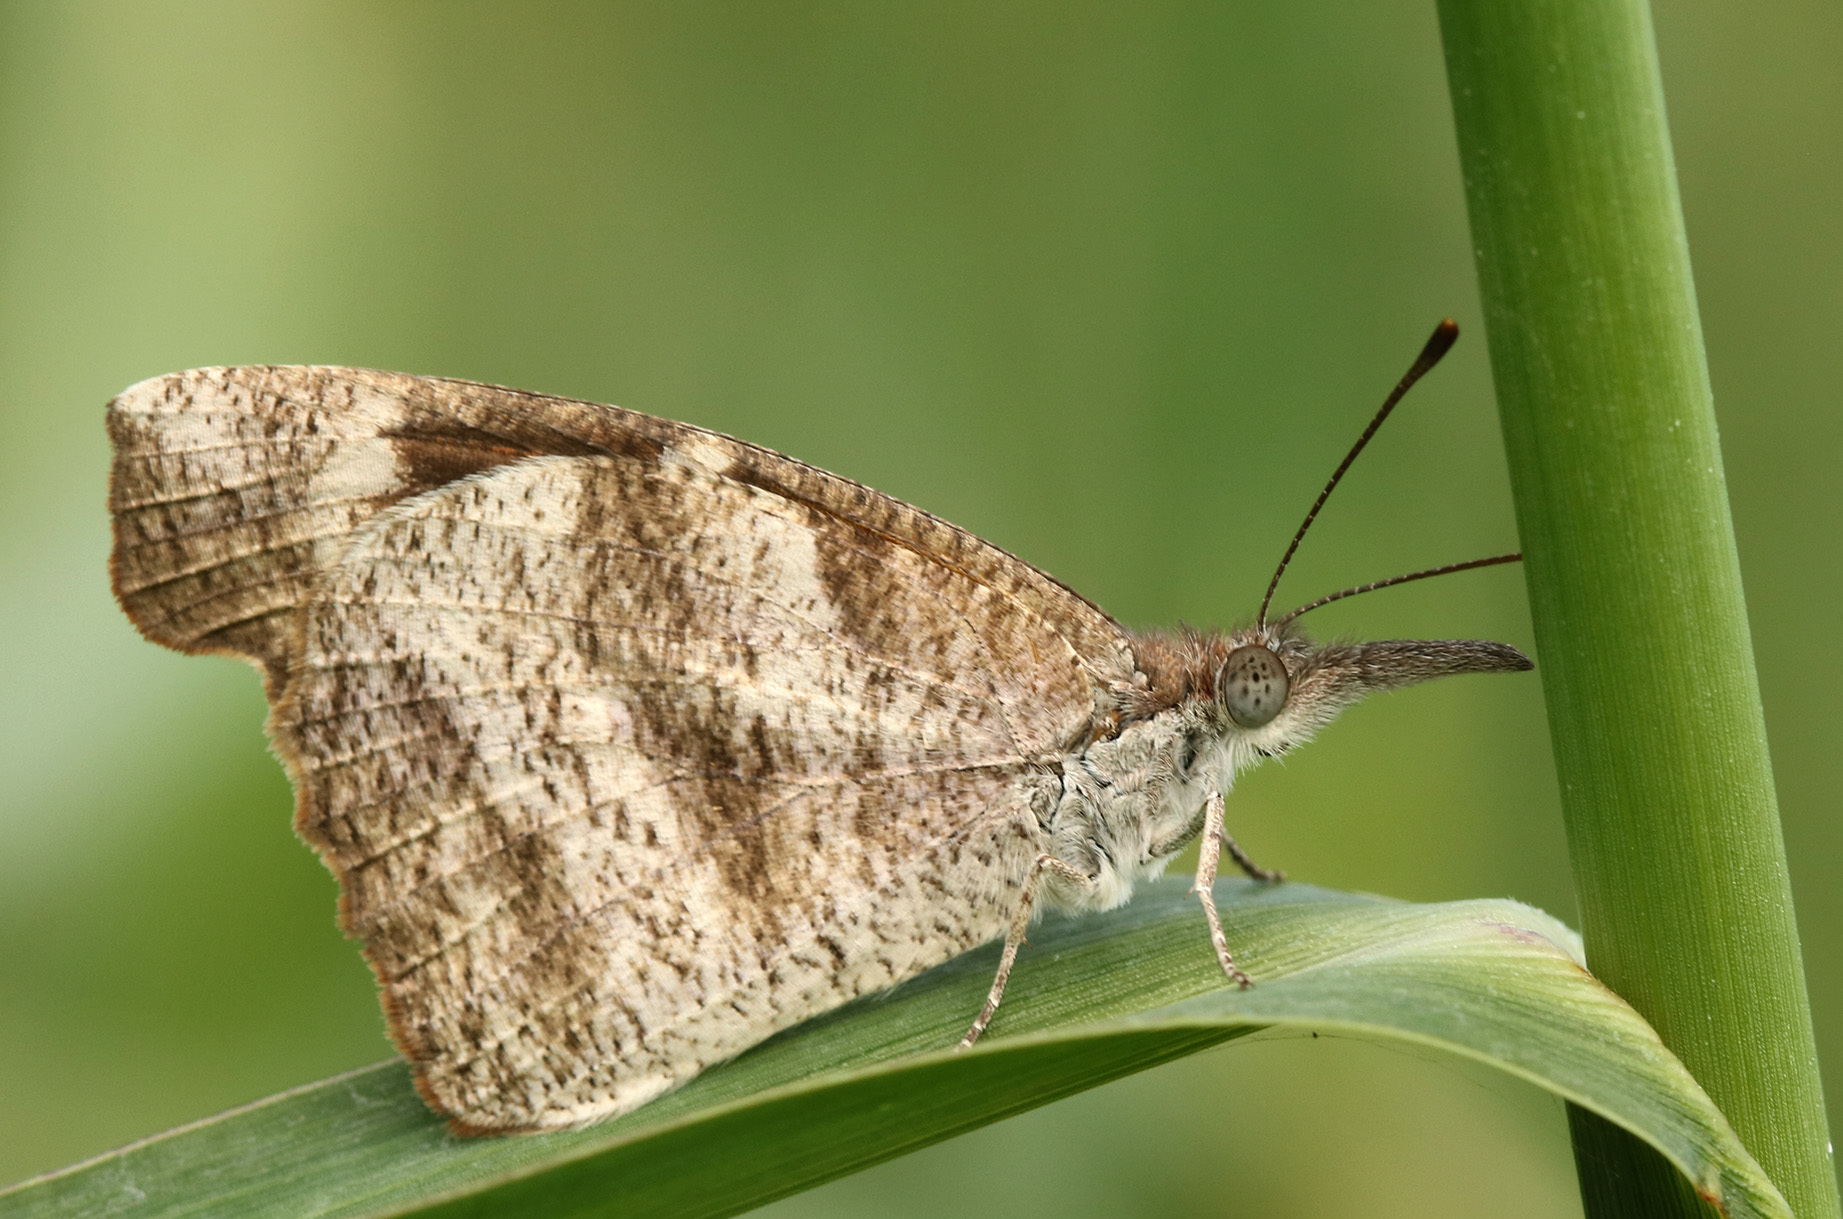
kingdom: Animalia
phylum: Arthropoda
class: Insecta
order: Lepidoptera
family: Nymphalidae
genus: Libytheana
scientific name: Libytheana carinenta
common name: American snout
